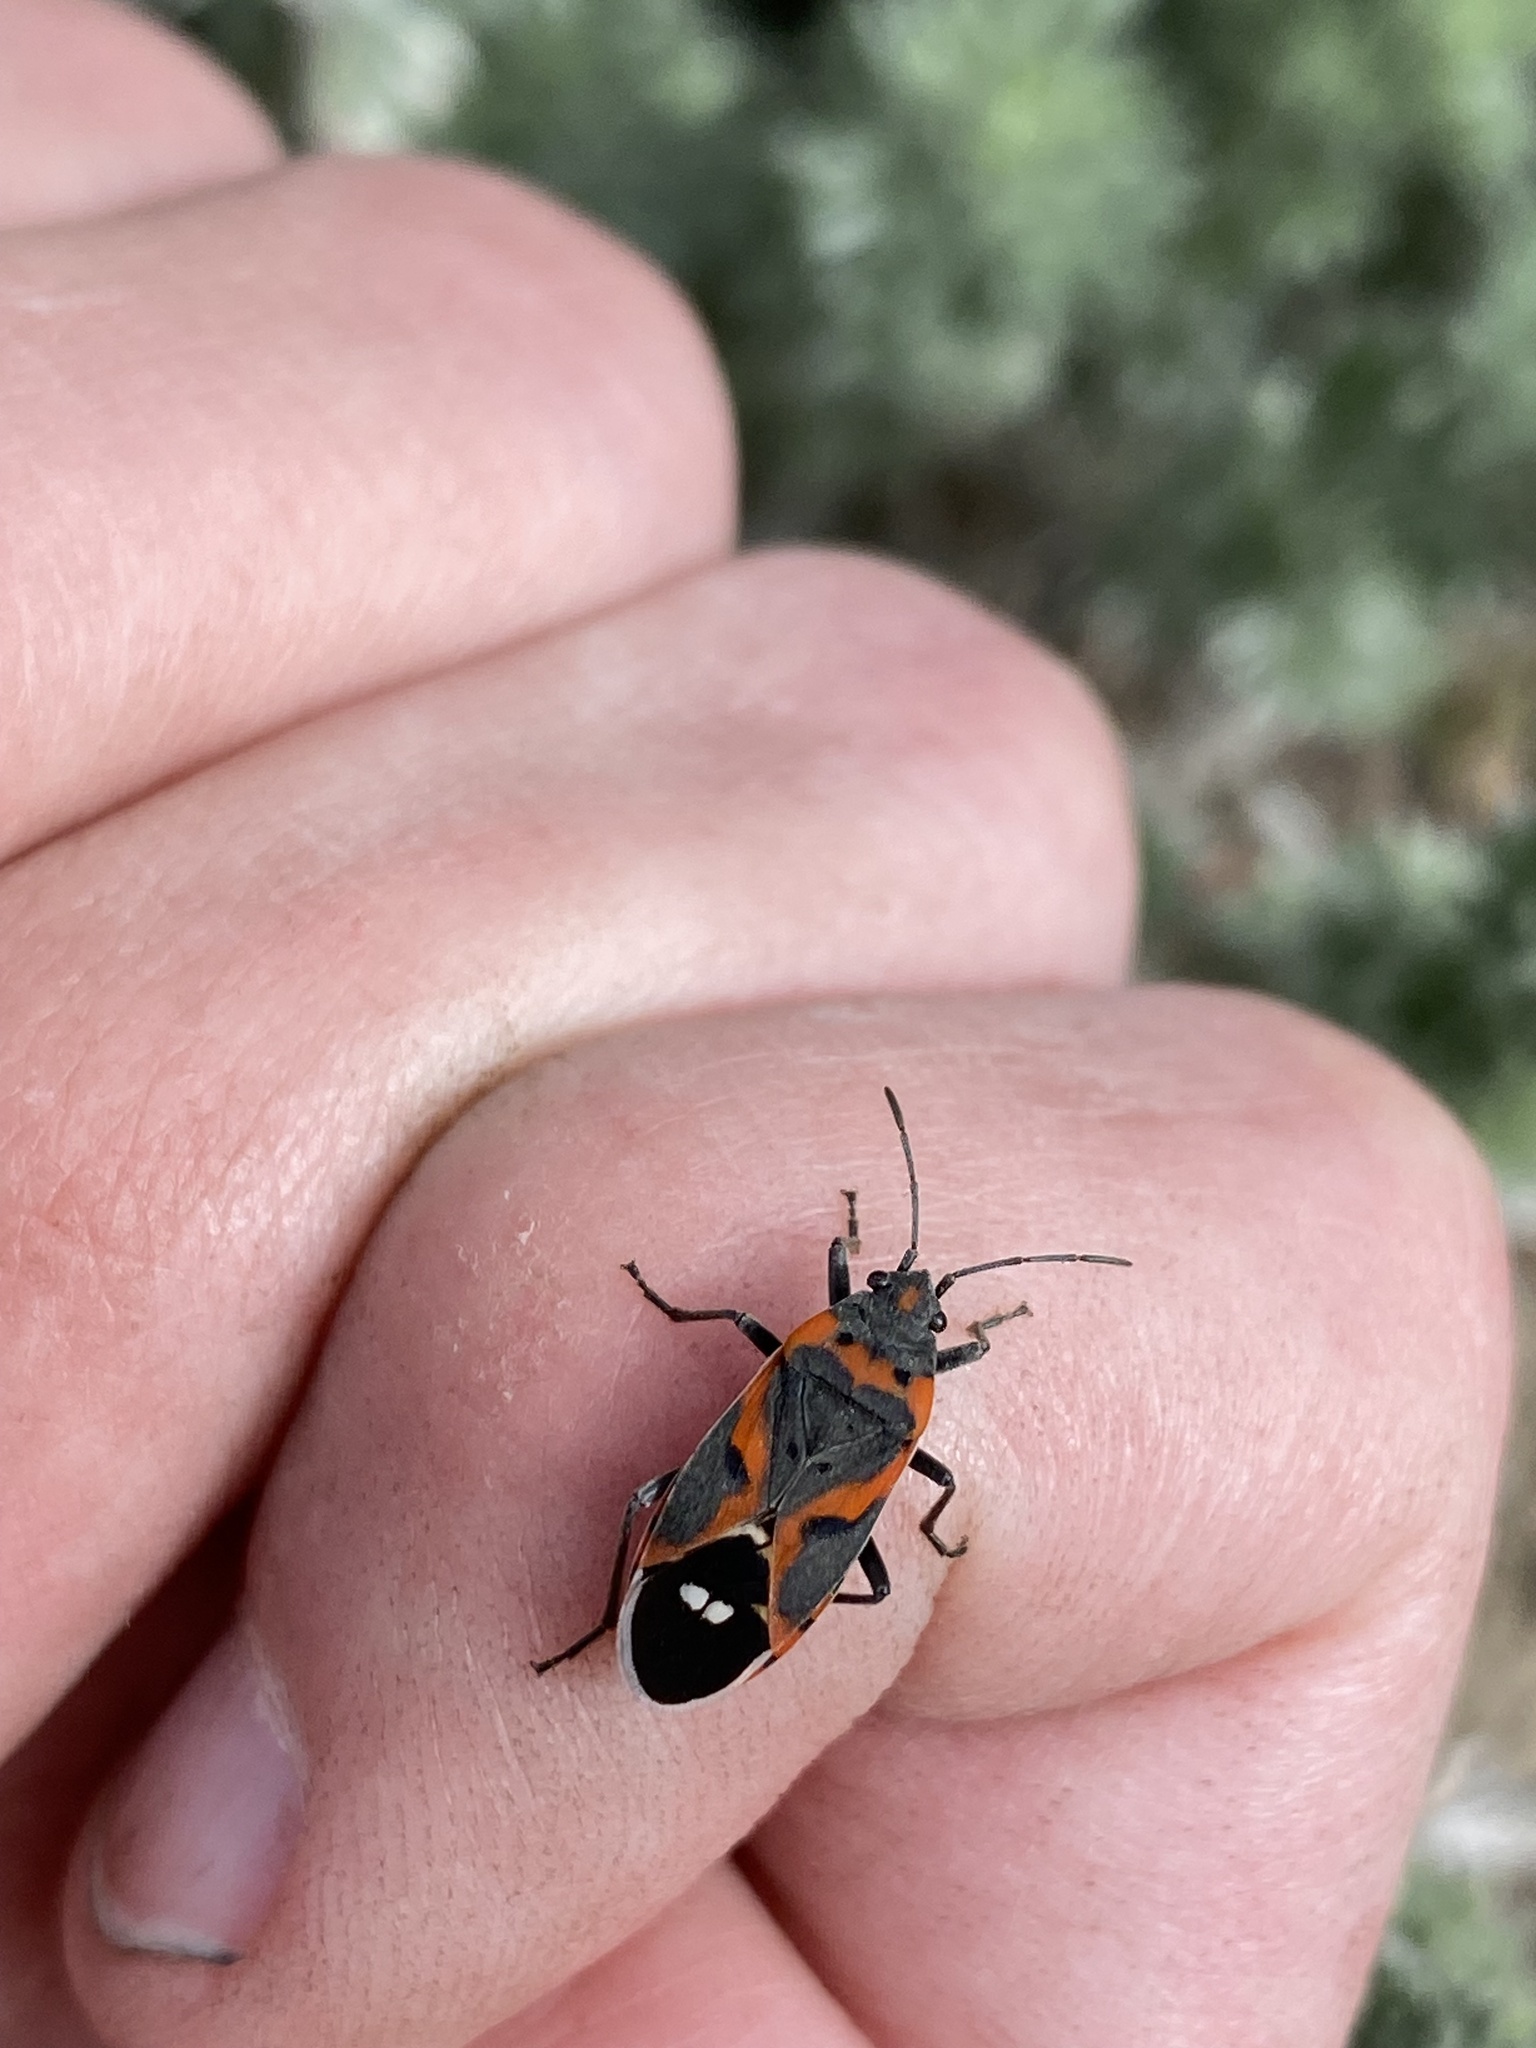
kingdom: Animalia
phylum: Arthropoda
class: Insecta
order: Hemiptera
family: Lygaeidae
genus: Lygaeus
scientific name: Lygaeus kalmii
